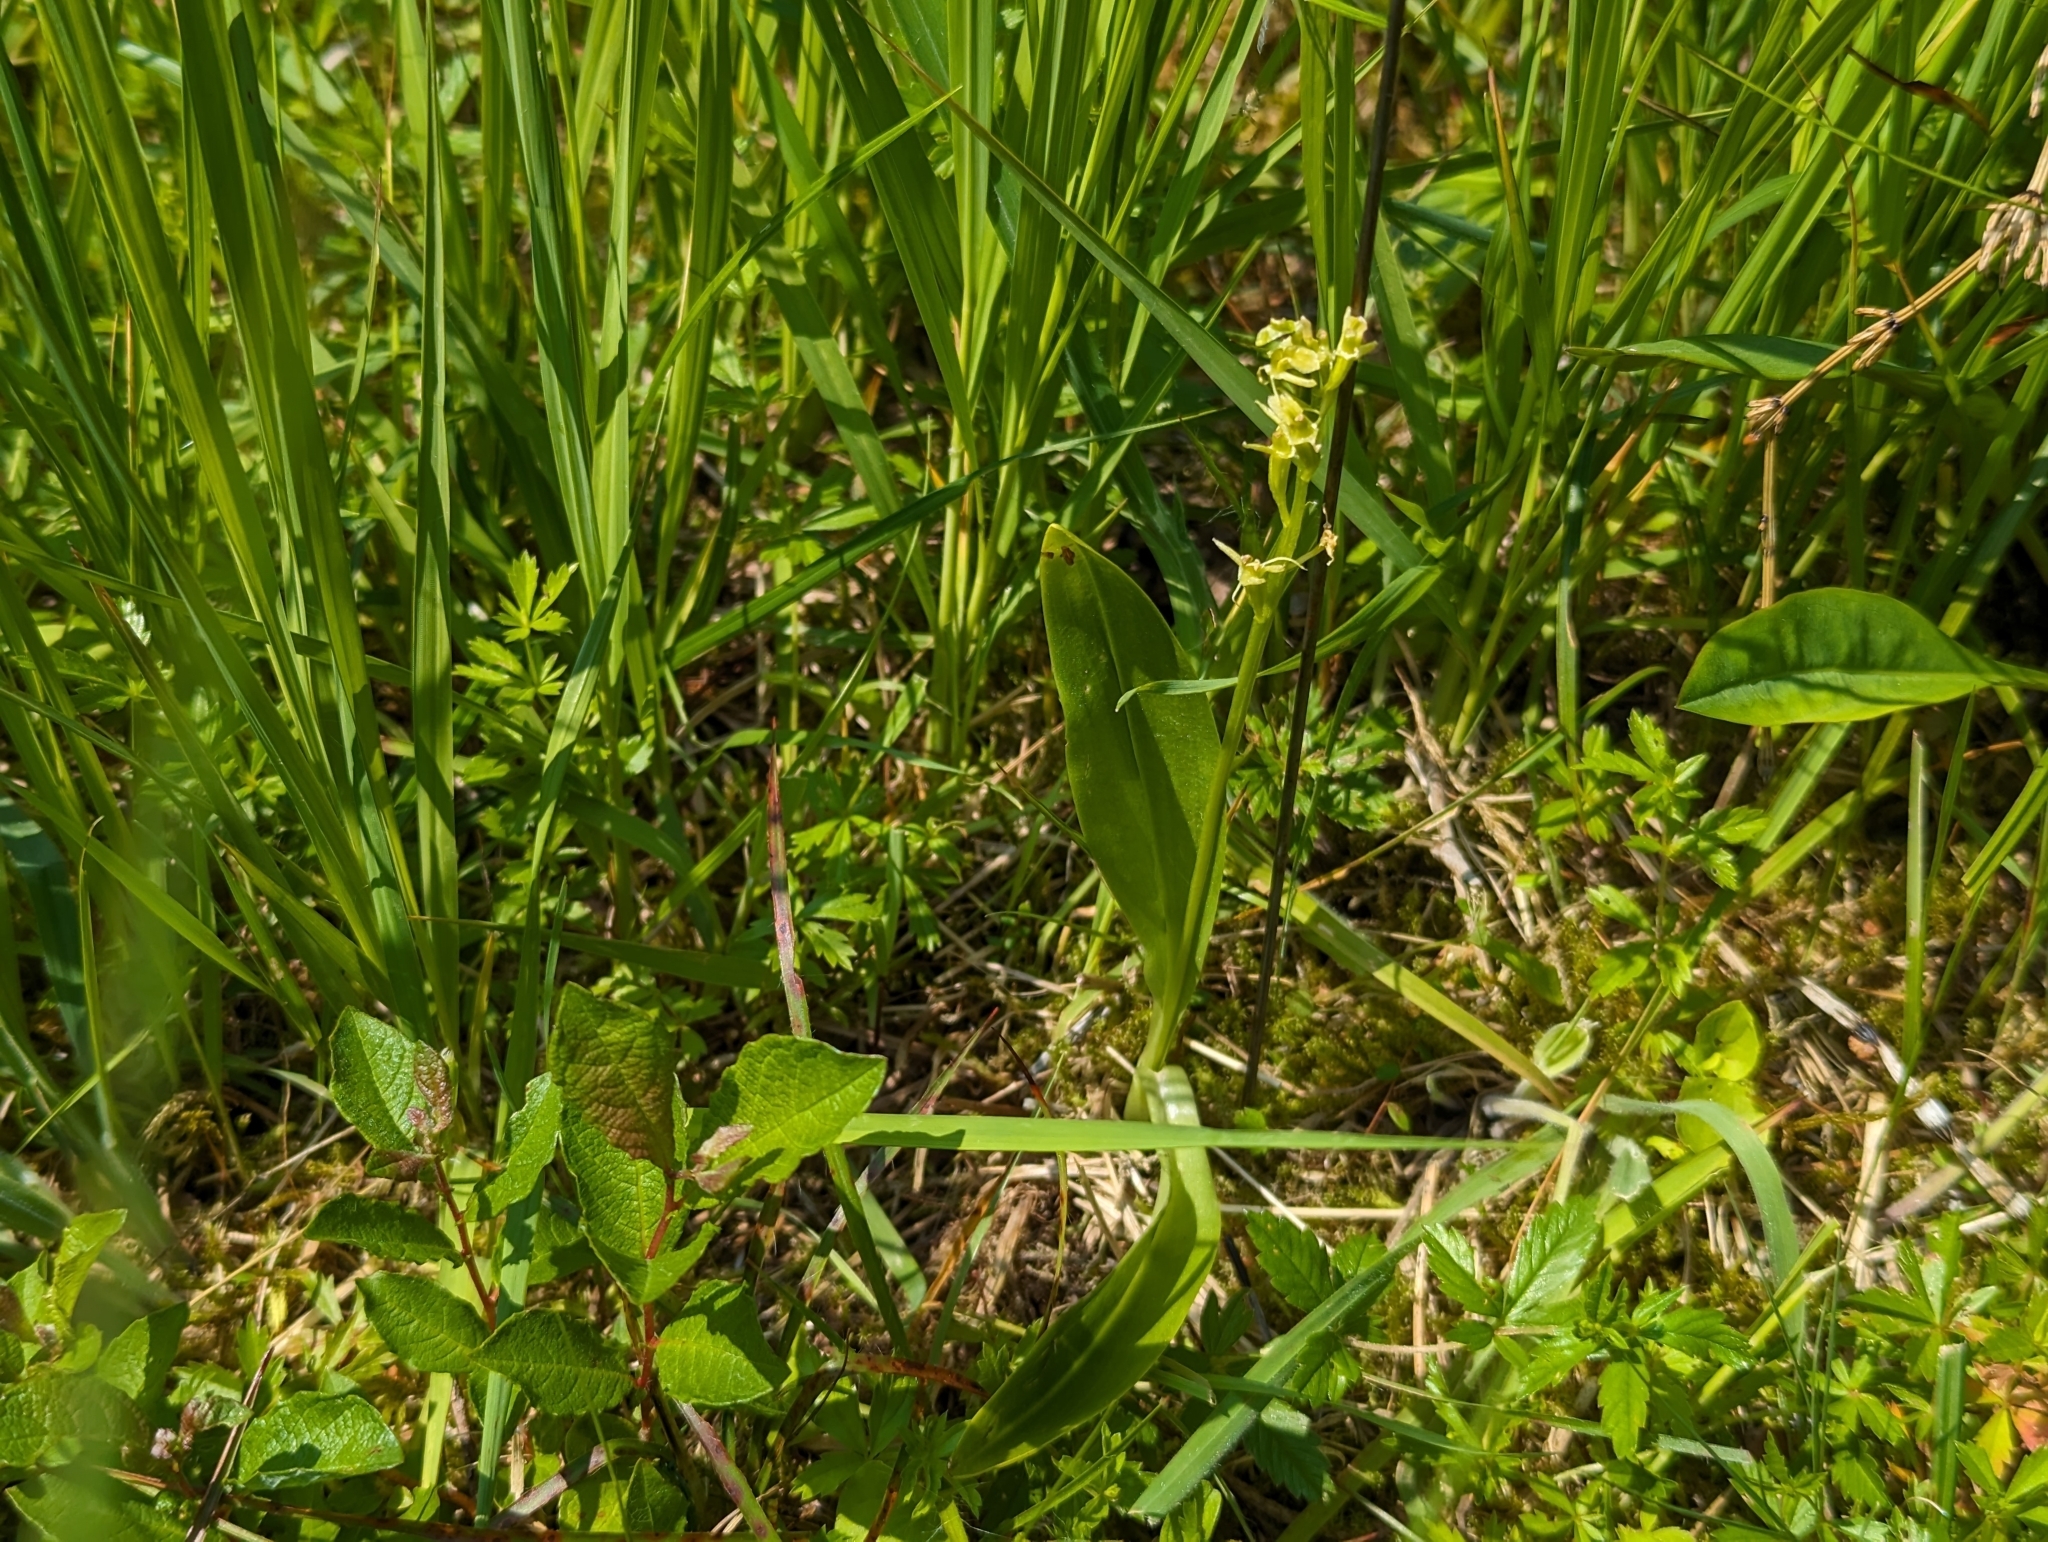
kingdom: Animalia
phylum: Arthropoda
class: Insecta
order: Coleoptera
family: Curculionidae
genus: Liparis
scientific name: Liparis loeselii
